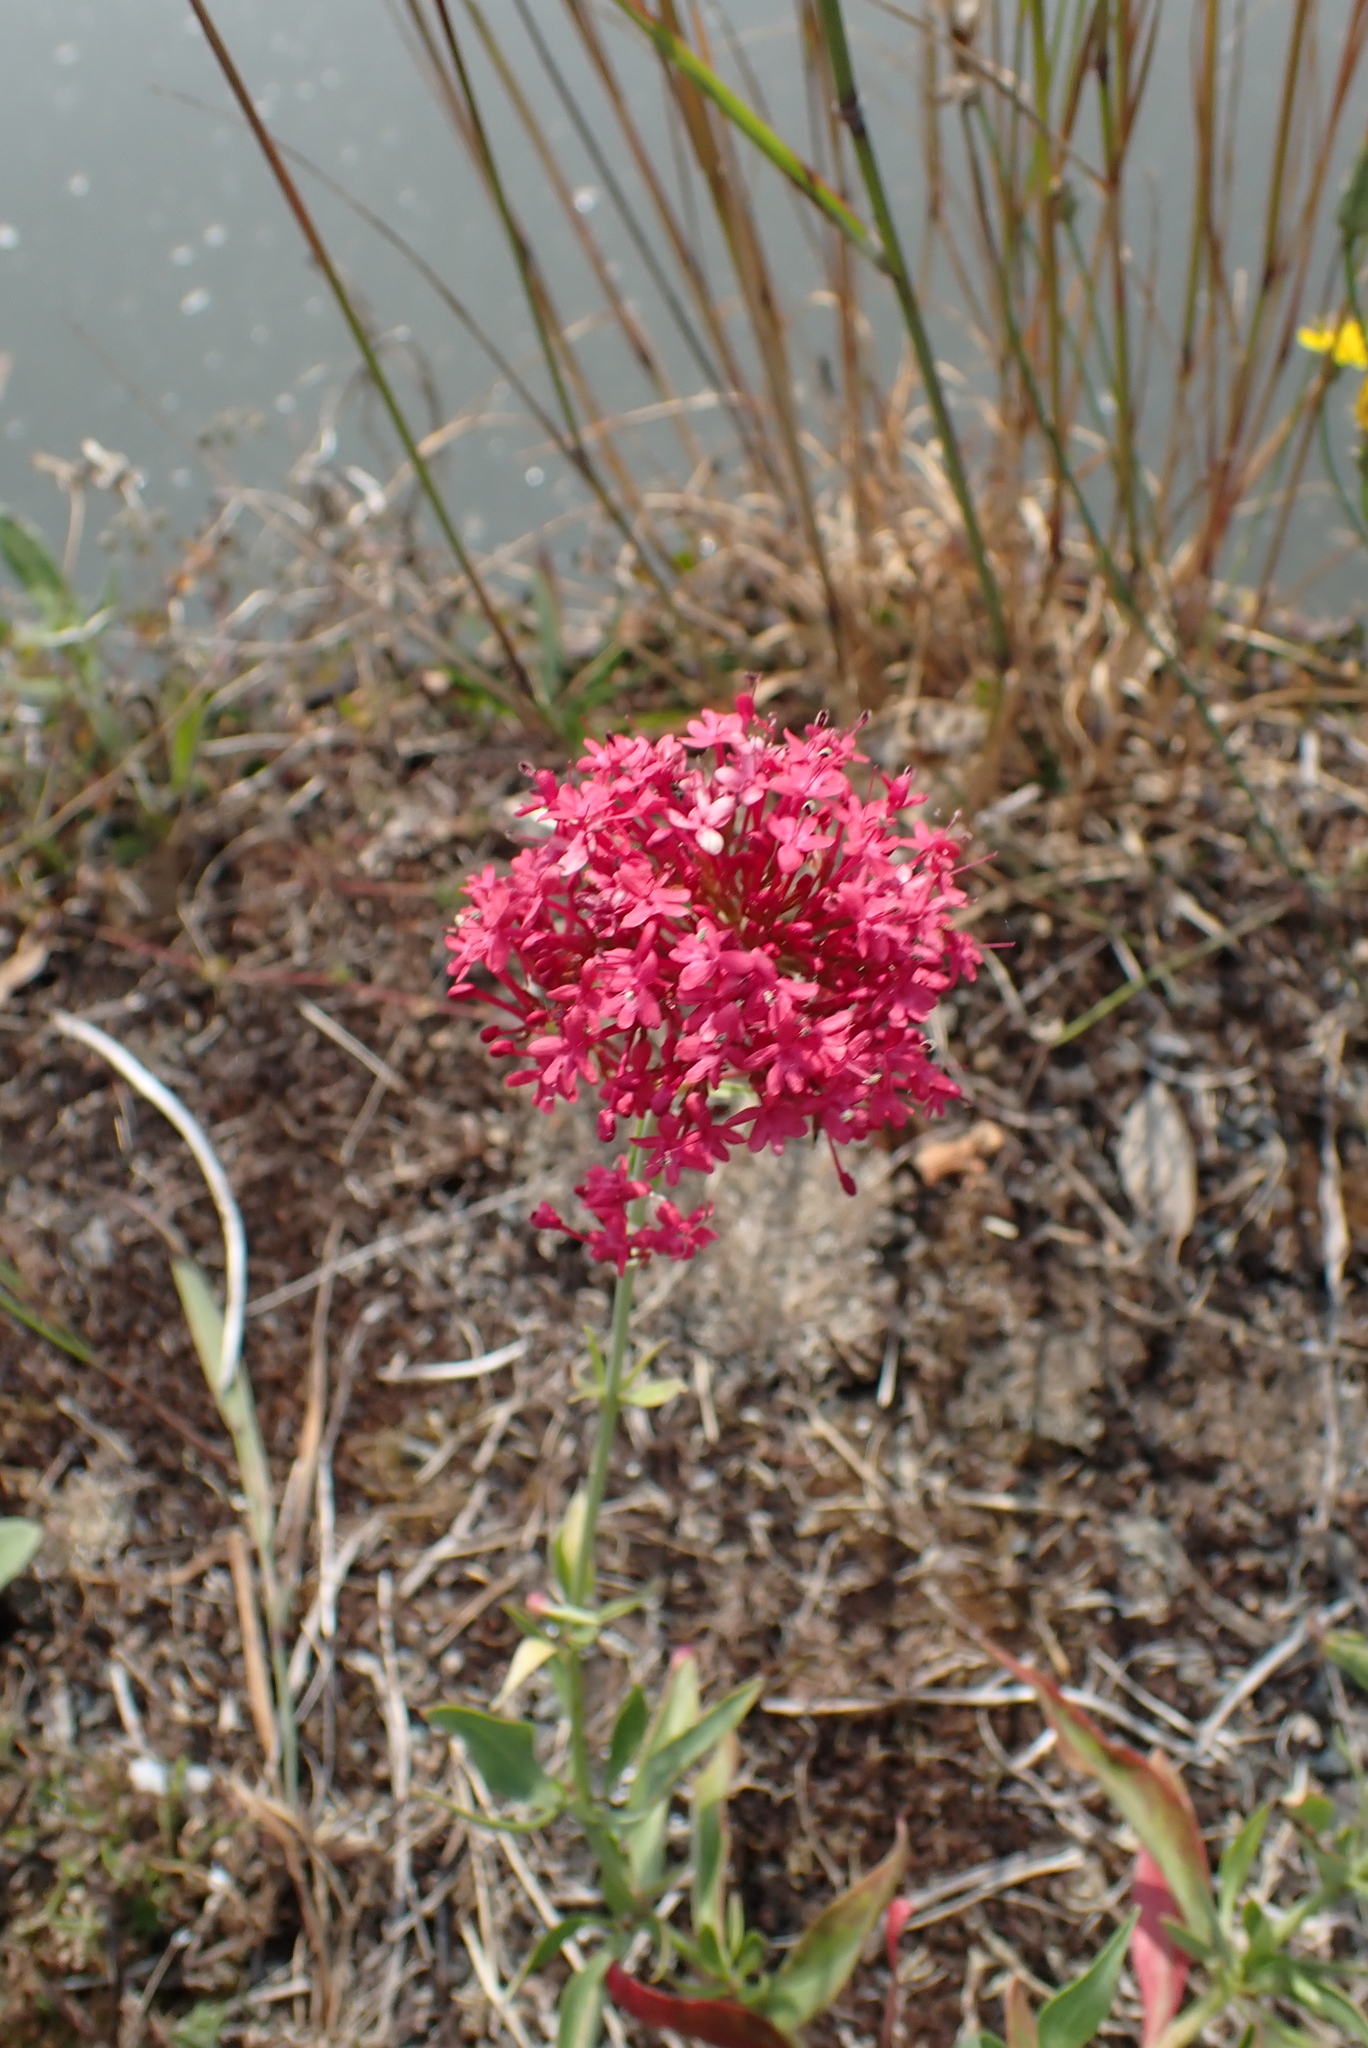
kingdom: Plantae
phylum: Tracheophyta
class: Magnoliopsida
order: Dipsacales
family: Caprifoliaceae
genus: Centranthus
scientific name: Centranthus ruber
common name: Red valerian
